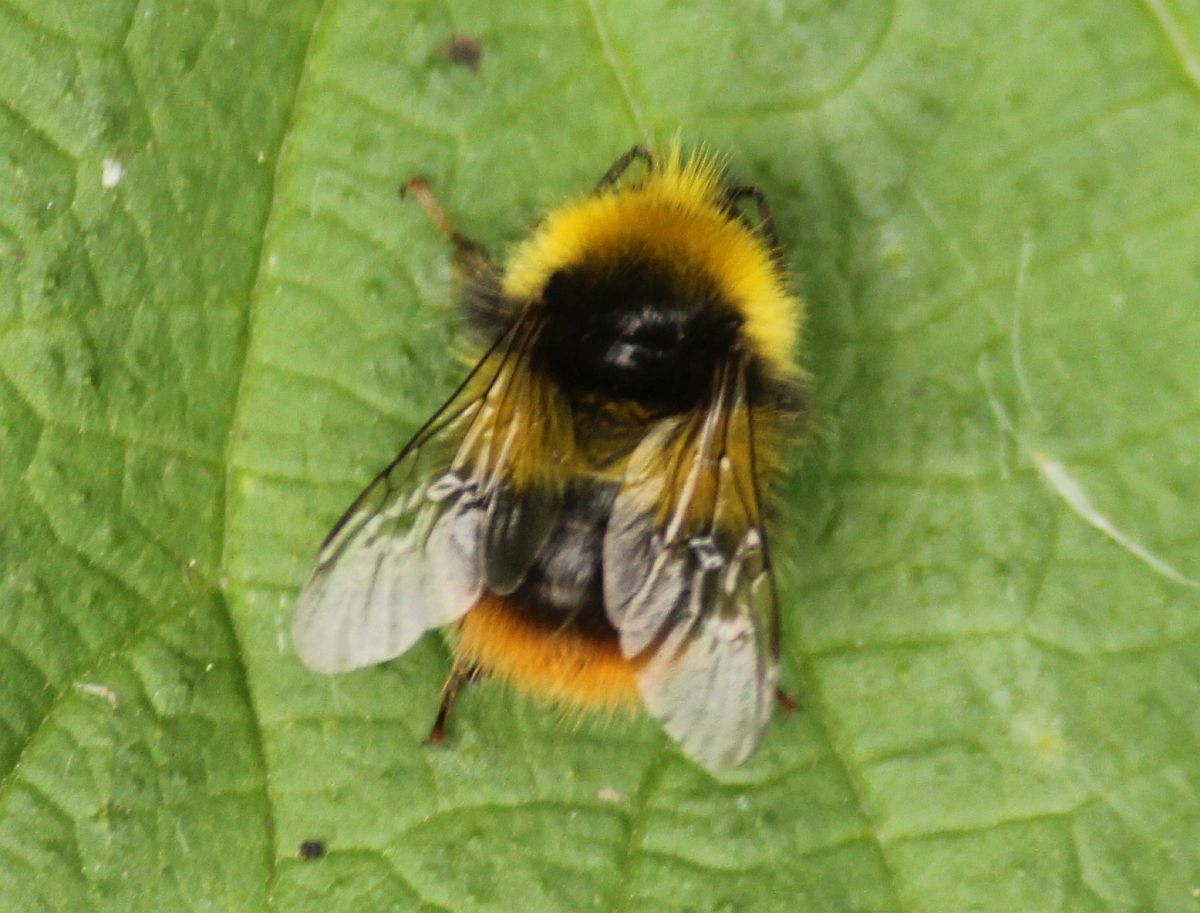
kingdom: Animalia
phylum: Arthropoda
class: Insecta
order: Hymenoptera
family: Apidae
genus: Bombus
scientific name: Bombus pratorum
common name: Early humble-bee
